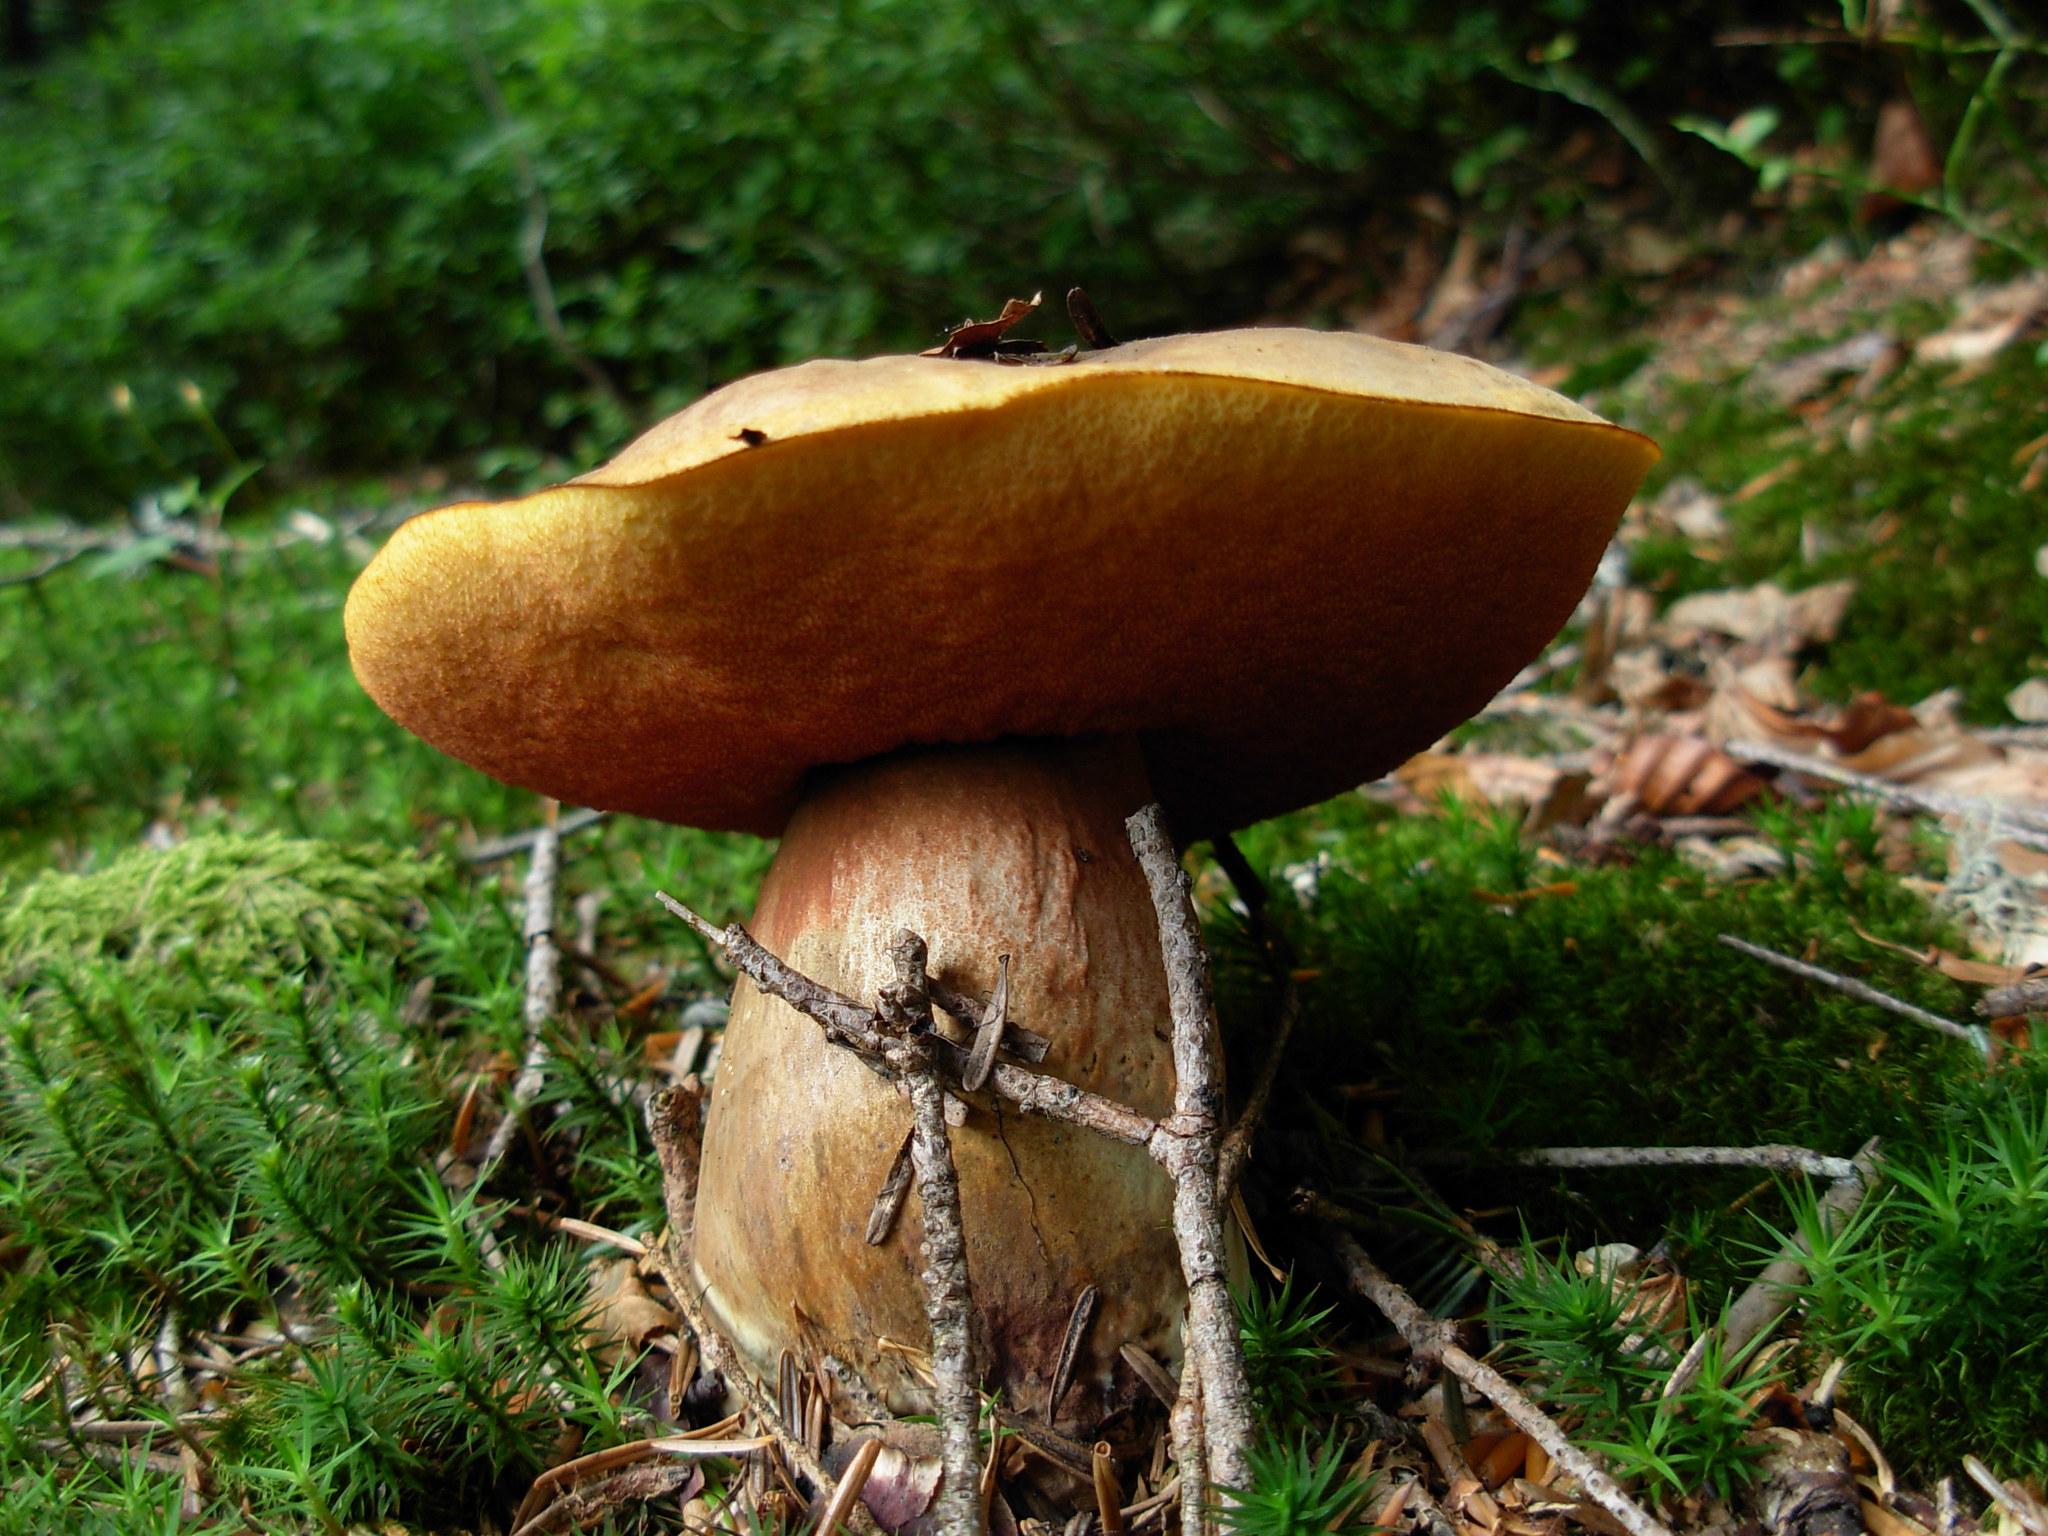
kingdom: Fungi
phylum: Basidiomycota
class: Agaricomycetes
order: Boletales
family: Boletaceae
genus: Neoboletus
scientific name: Neoboletus erythropus
